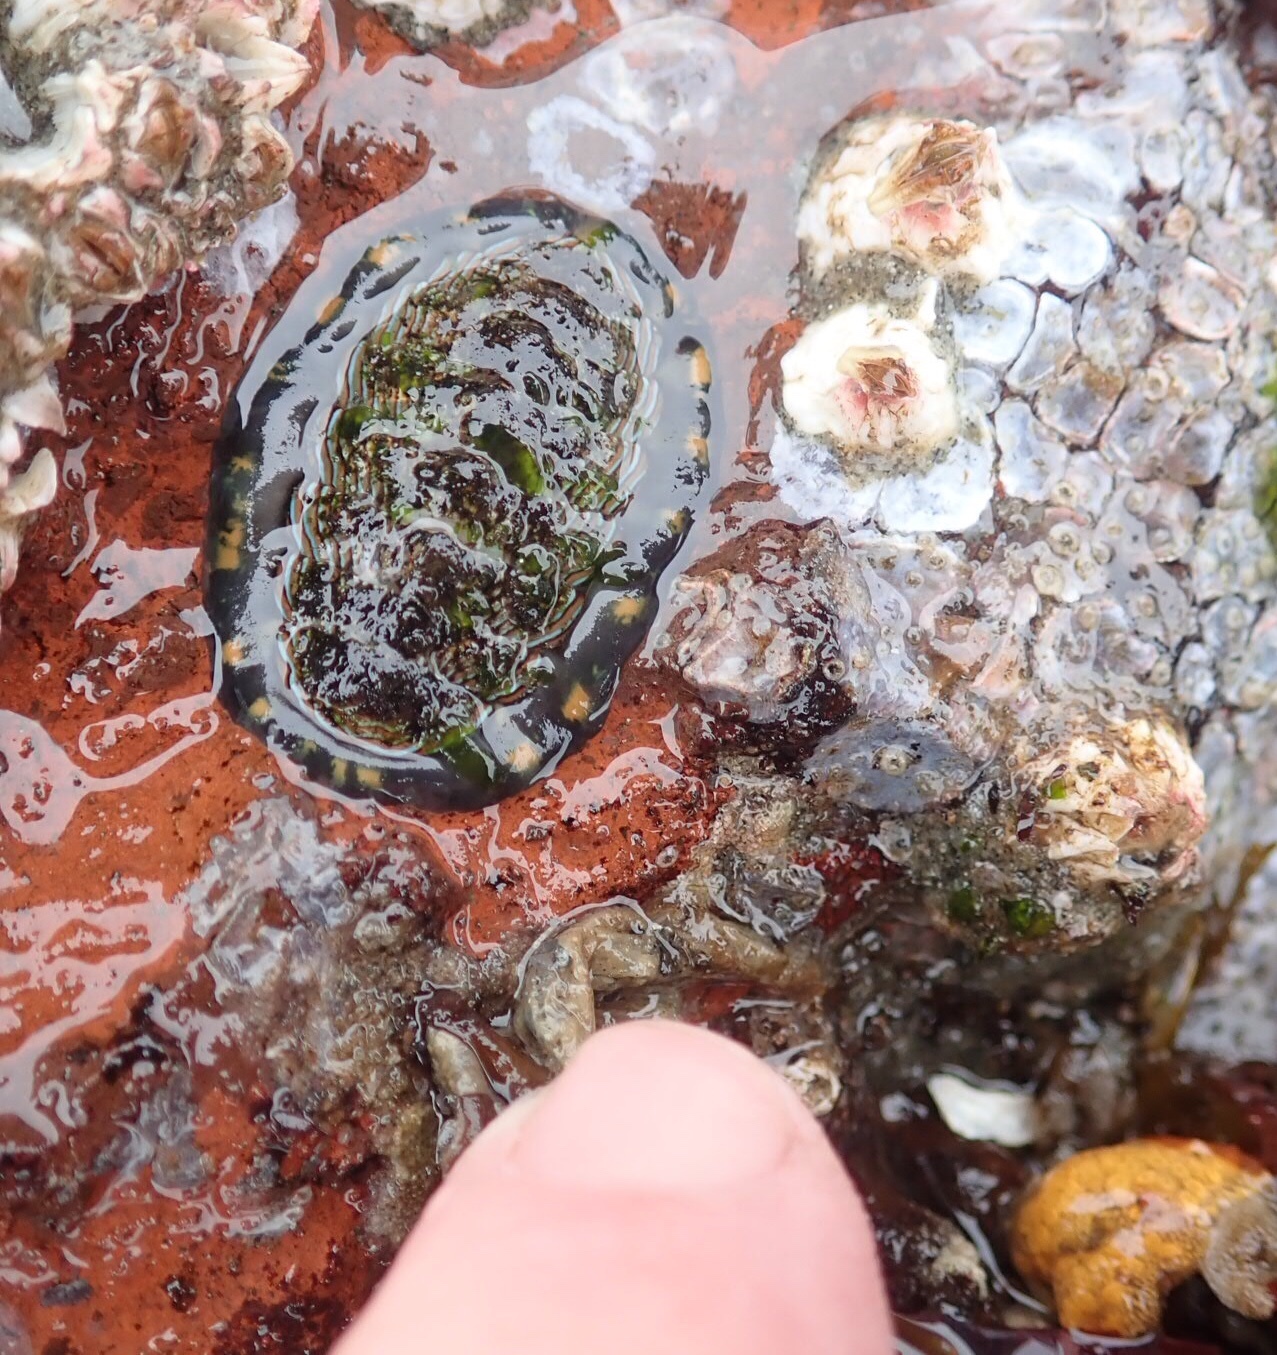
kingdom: Animalia
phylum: Mollusca
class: Polyplacophora
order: Chitonida
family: Tonicellidae
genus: Tonicella
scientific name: Tonicella lineata
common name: Lined chiton
